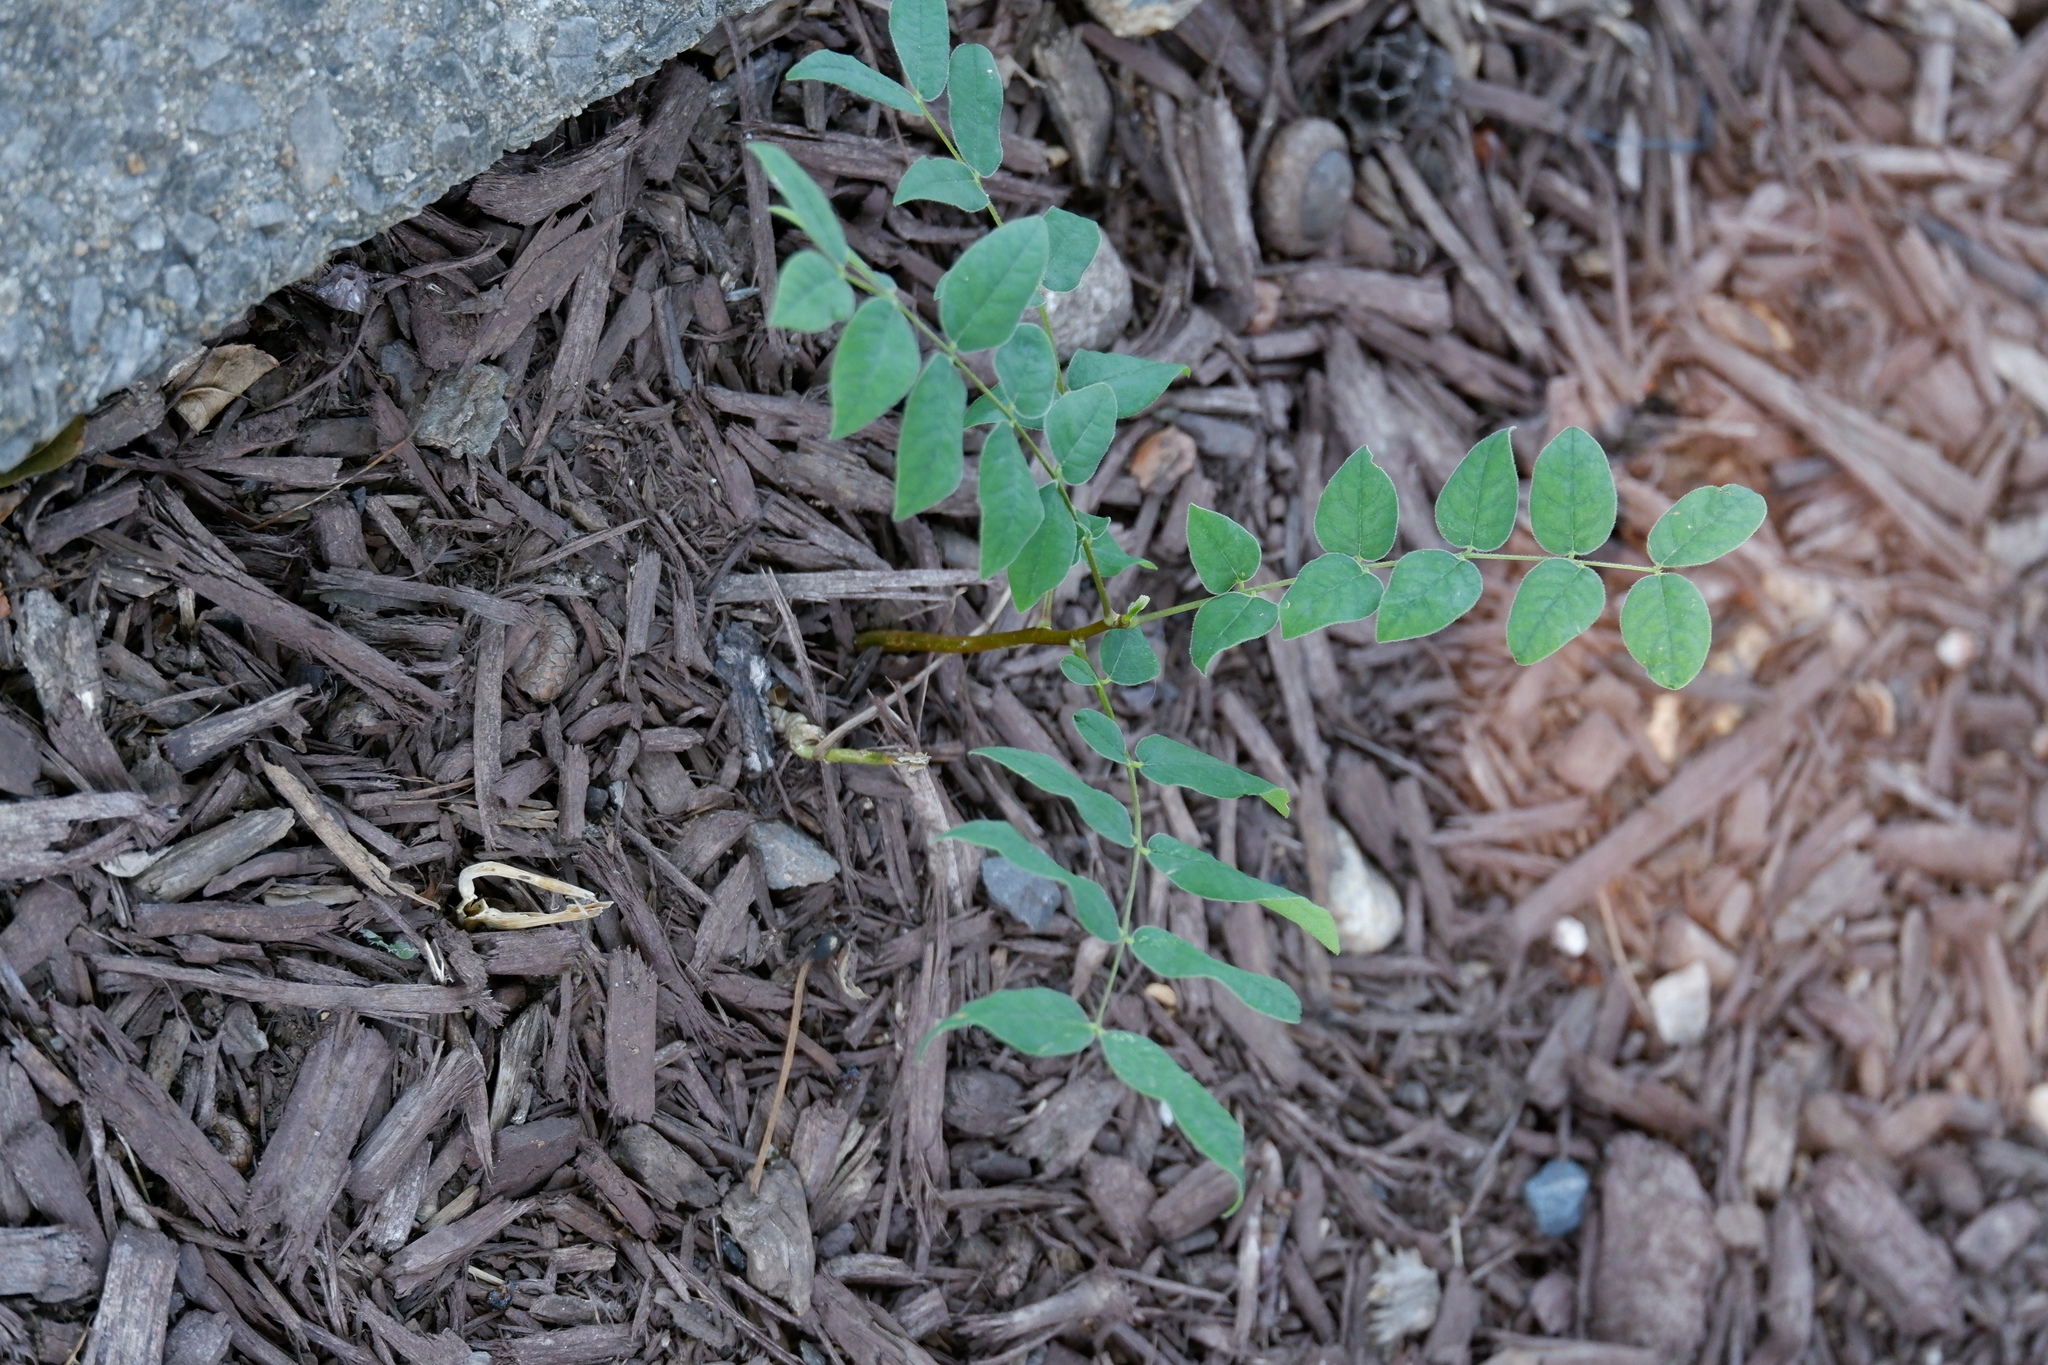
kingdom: Plantae
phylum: Tracheophyta
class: Magnoliopsida
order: Fabales
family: Fabaceae
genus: Gymnocladus
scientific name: Gymnocladus dioicus
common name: Kentucky coffee-tree
